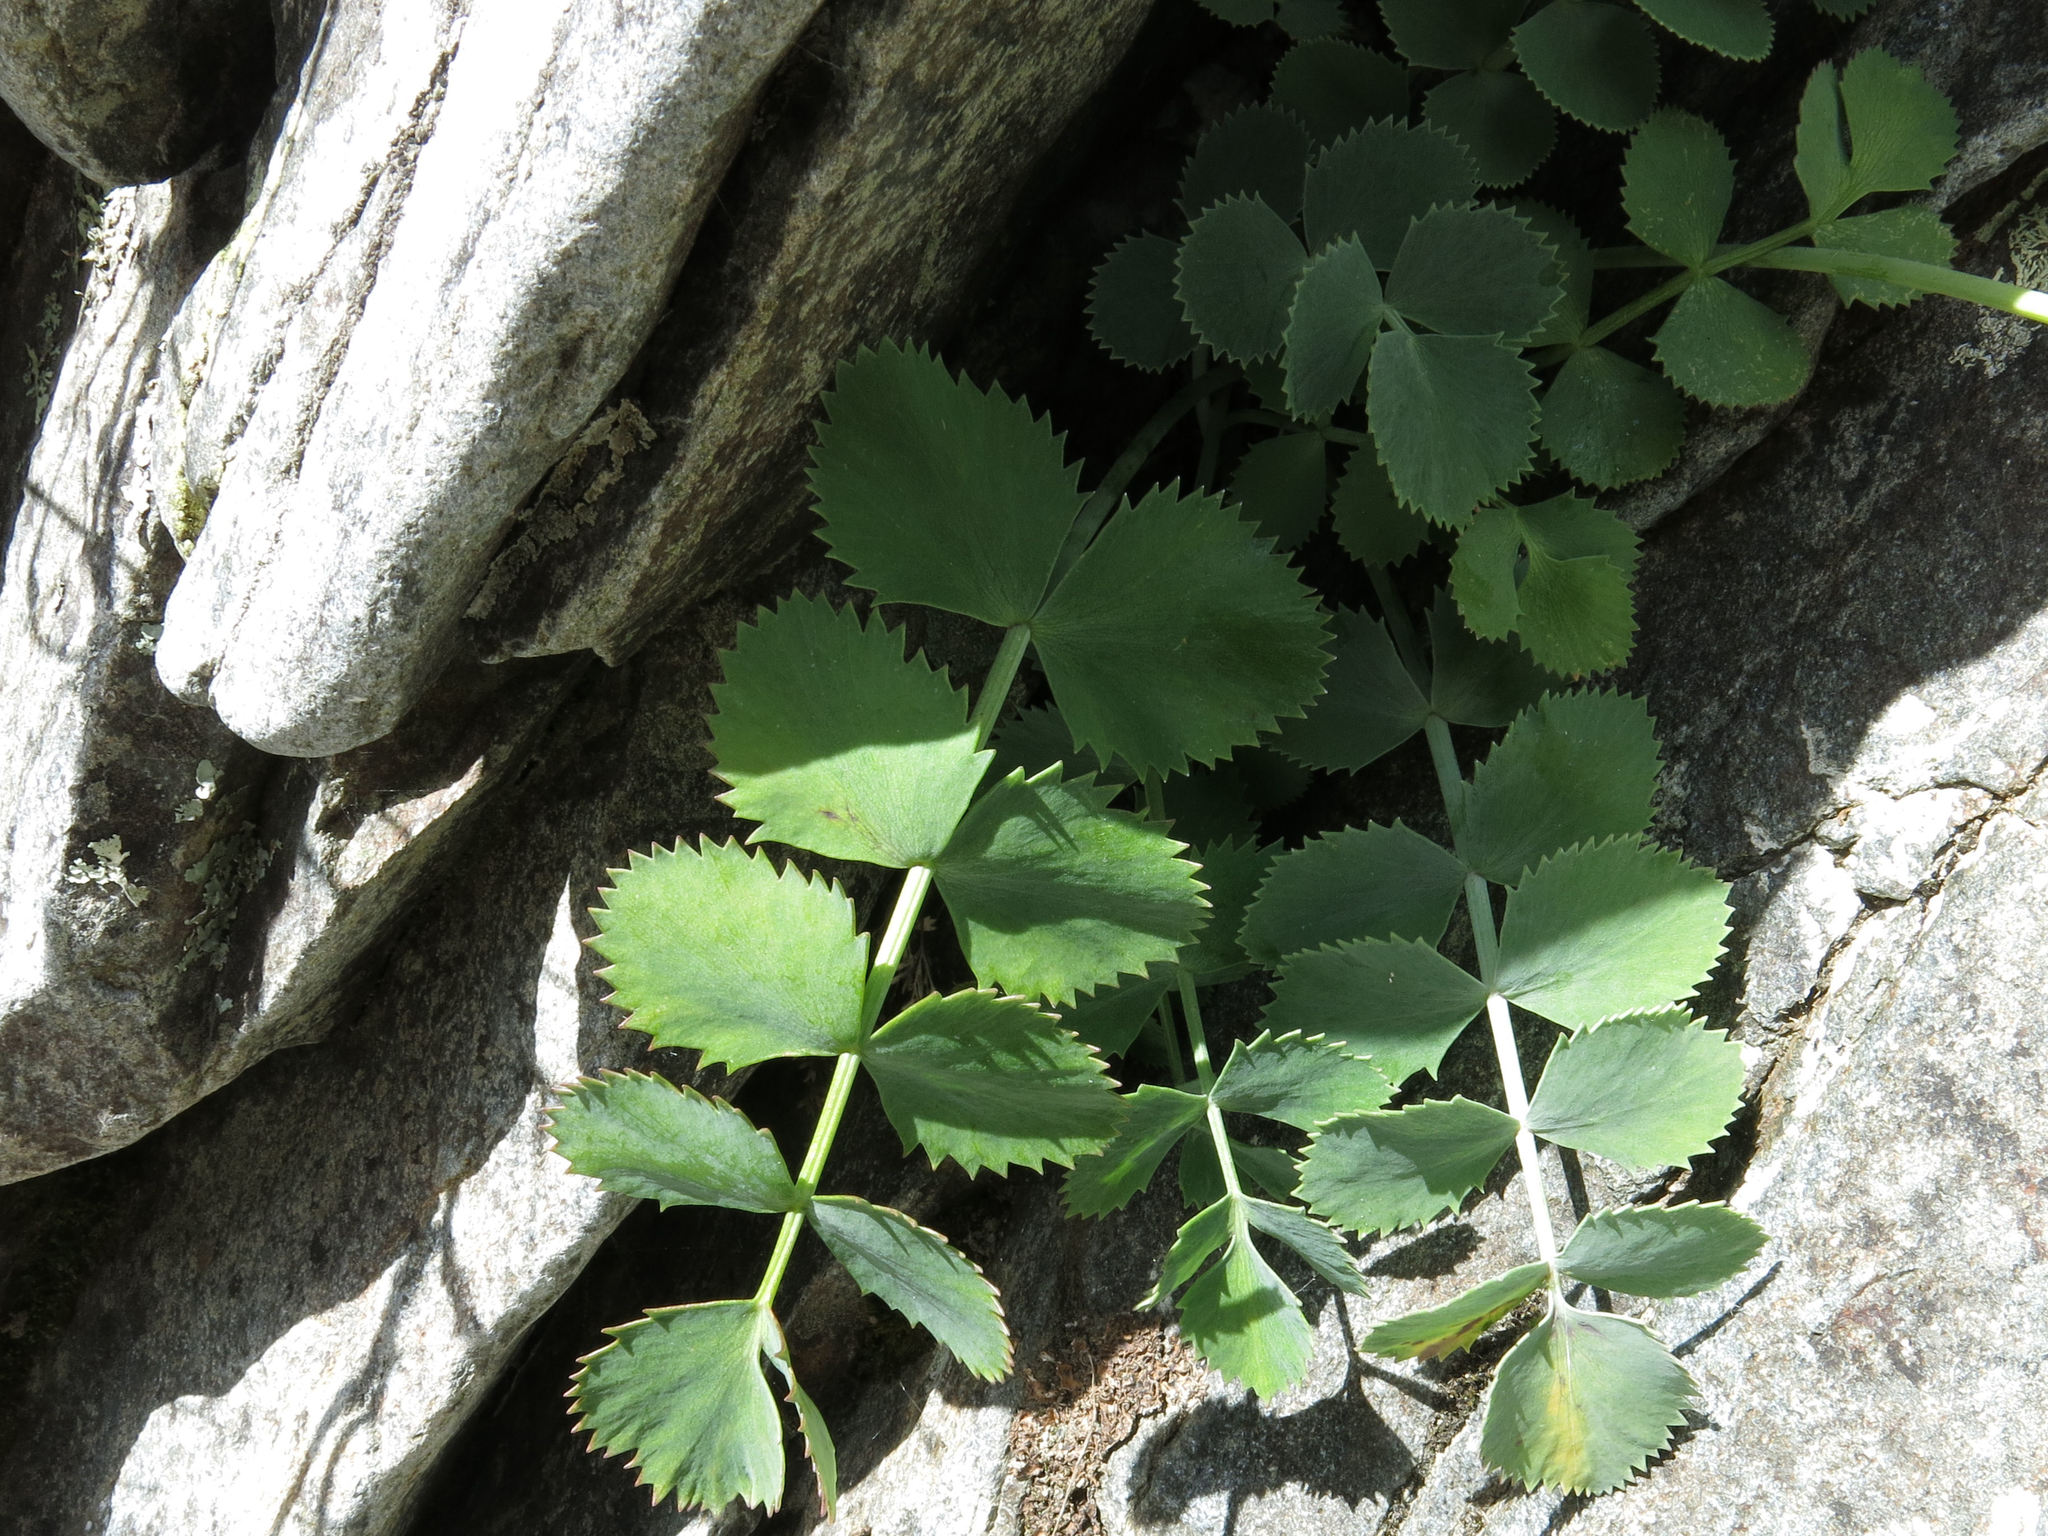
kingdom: Plantae
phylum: Tracheophyta
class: Magnoliopsida
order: Apiales
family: Apiaceae
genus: Gingidia
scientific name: Gingidia grisea
